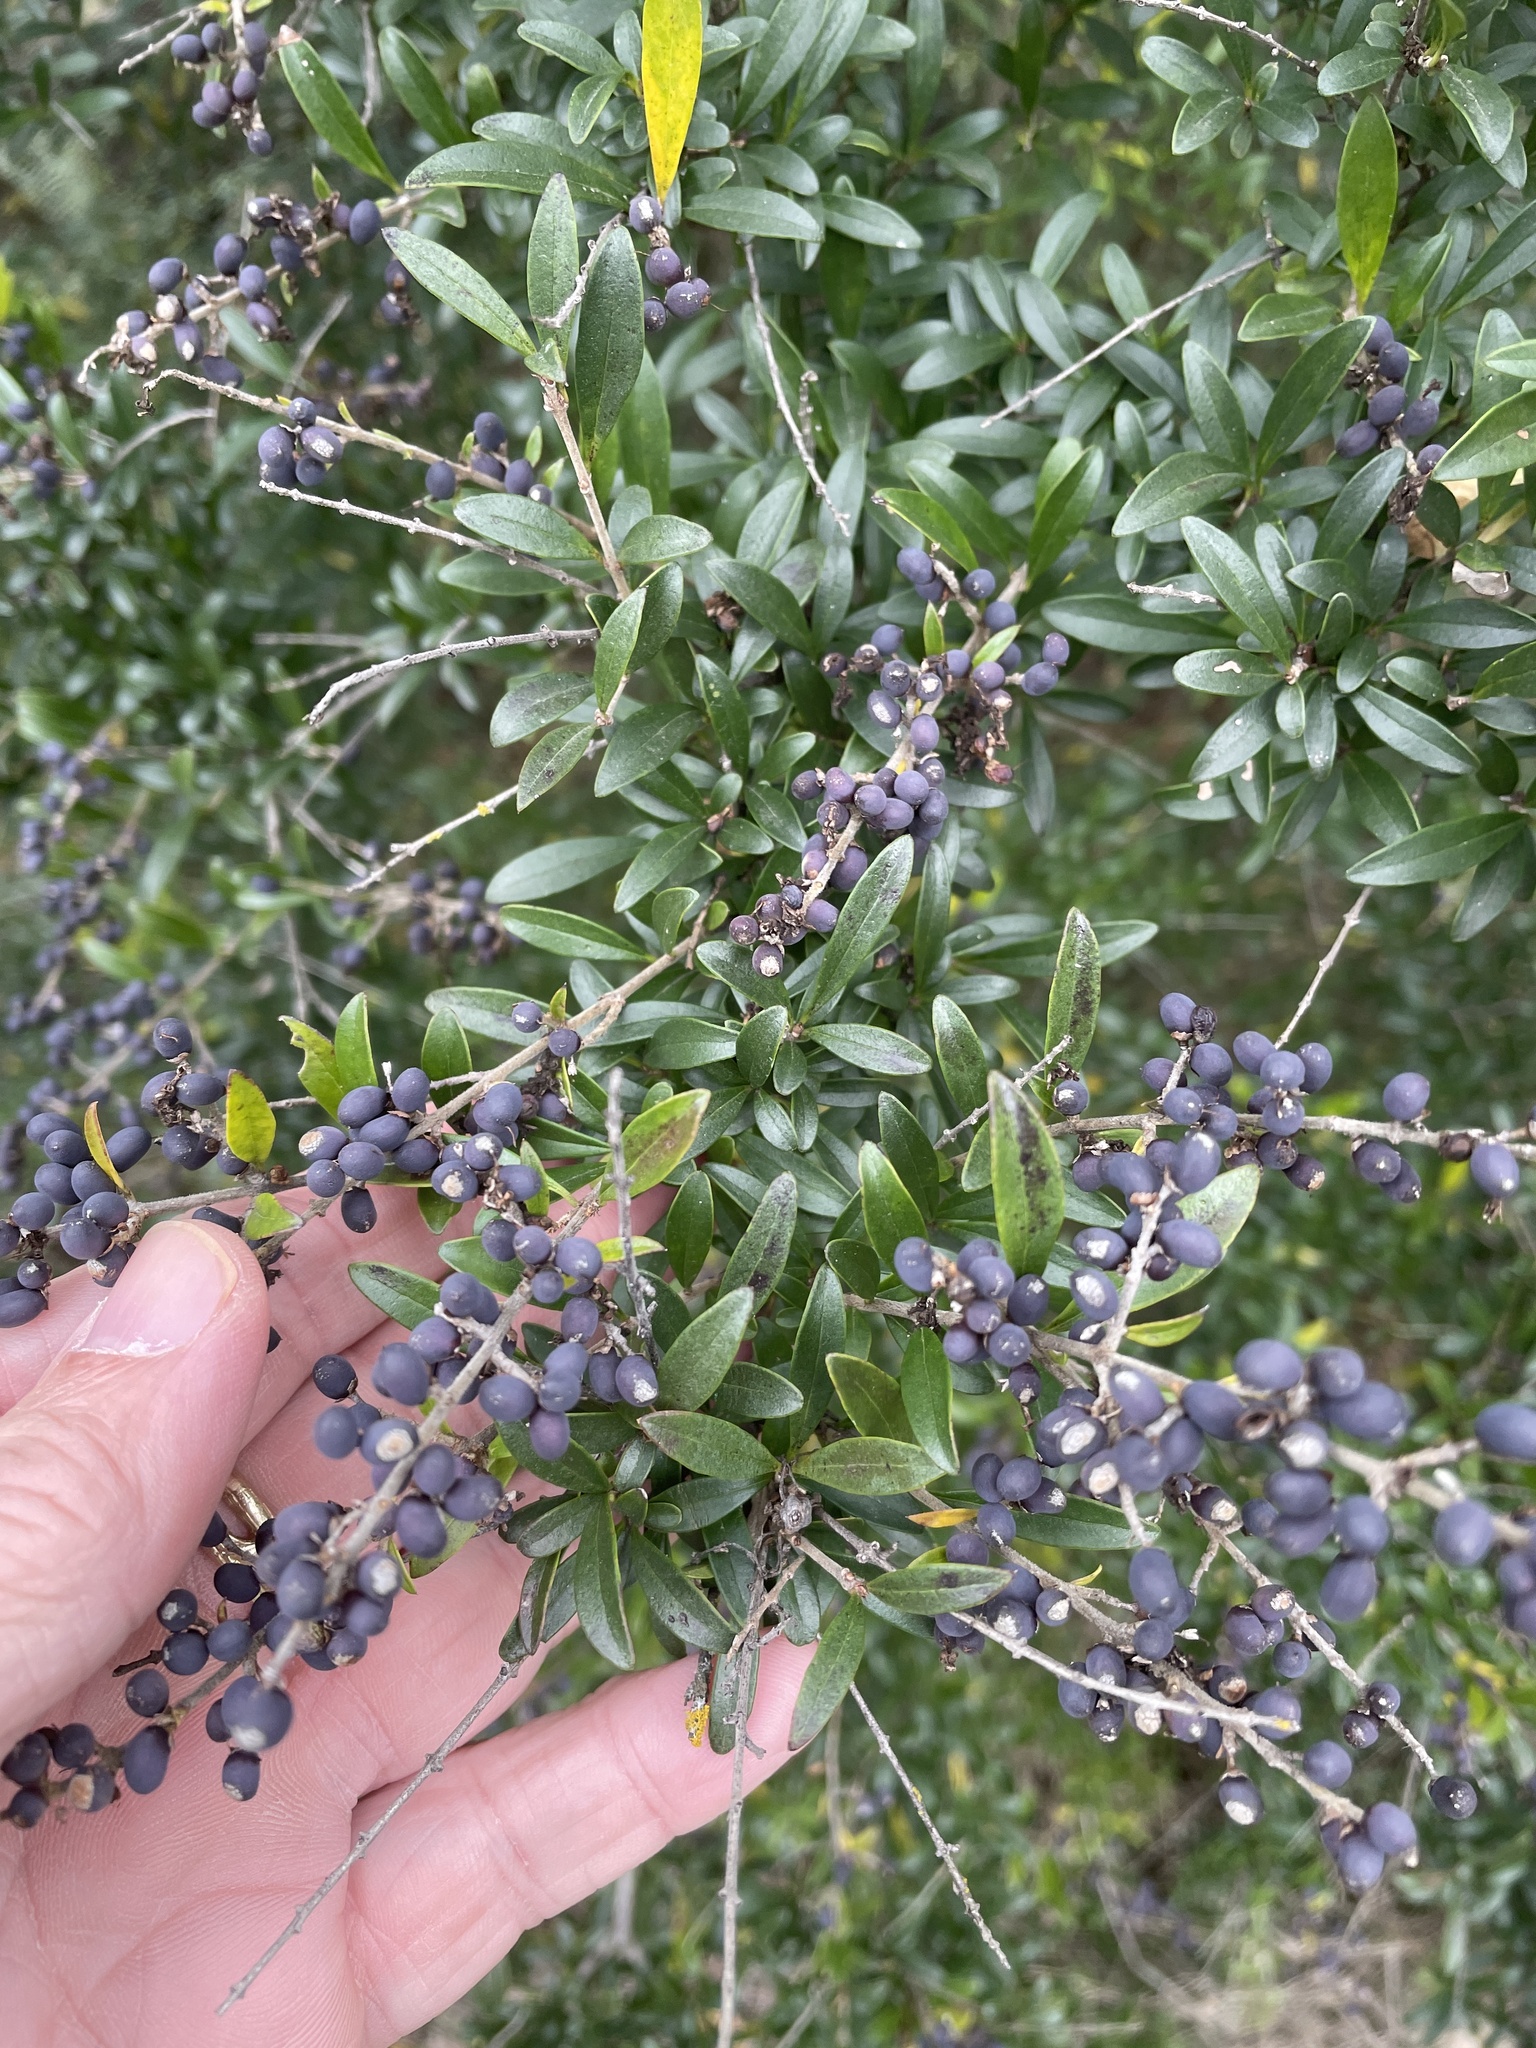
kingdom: Plantae
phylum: Tracheophyta
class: Magnoliopsida
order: Lamiales
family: Oleaceae
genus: Ligustrum
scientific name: Ligustrum quihoui
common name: Waxyleaf privet
